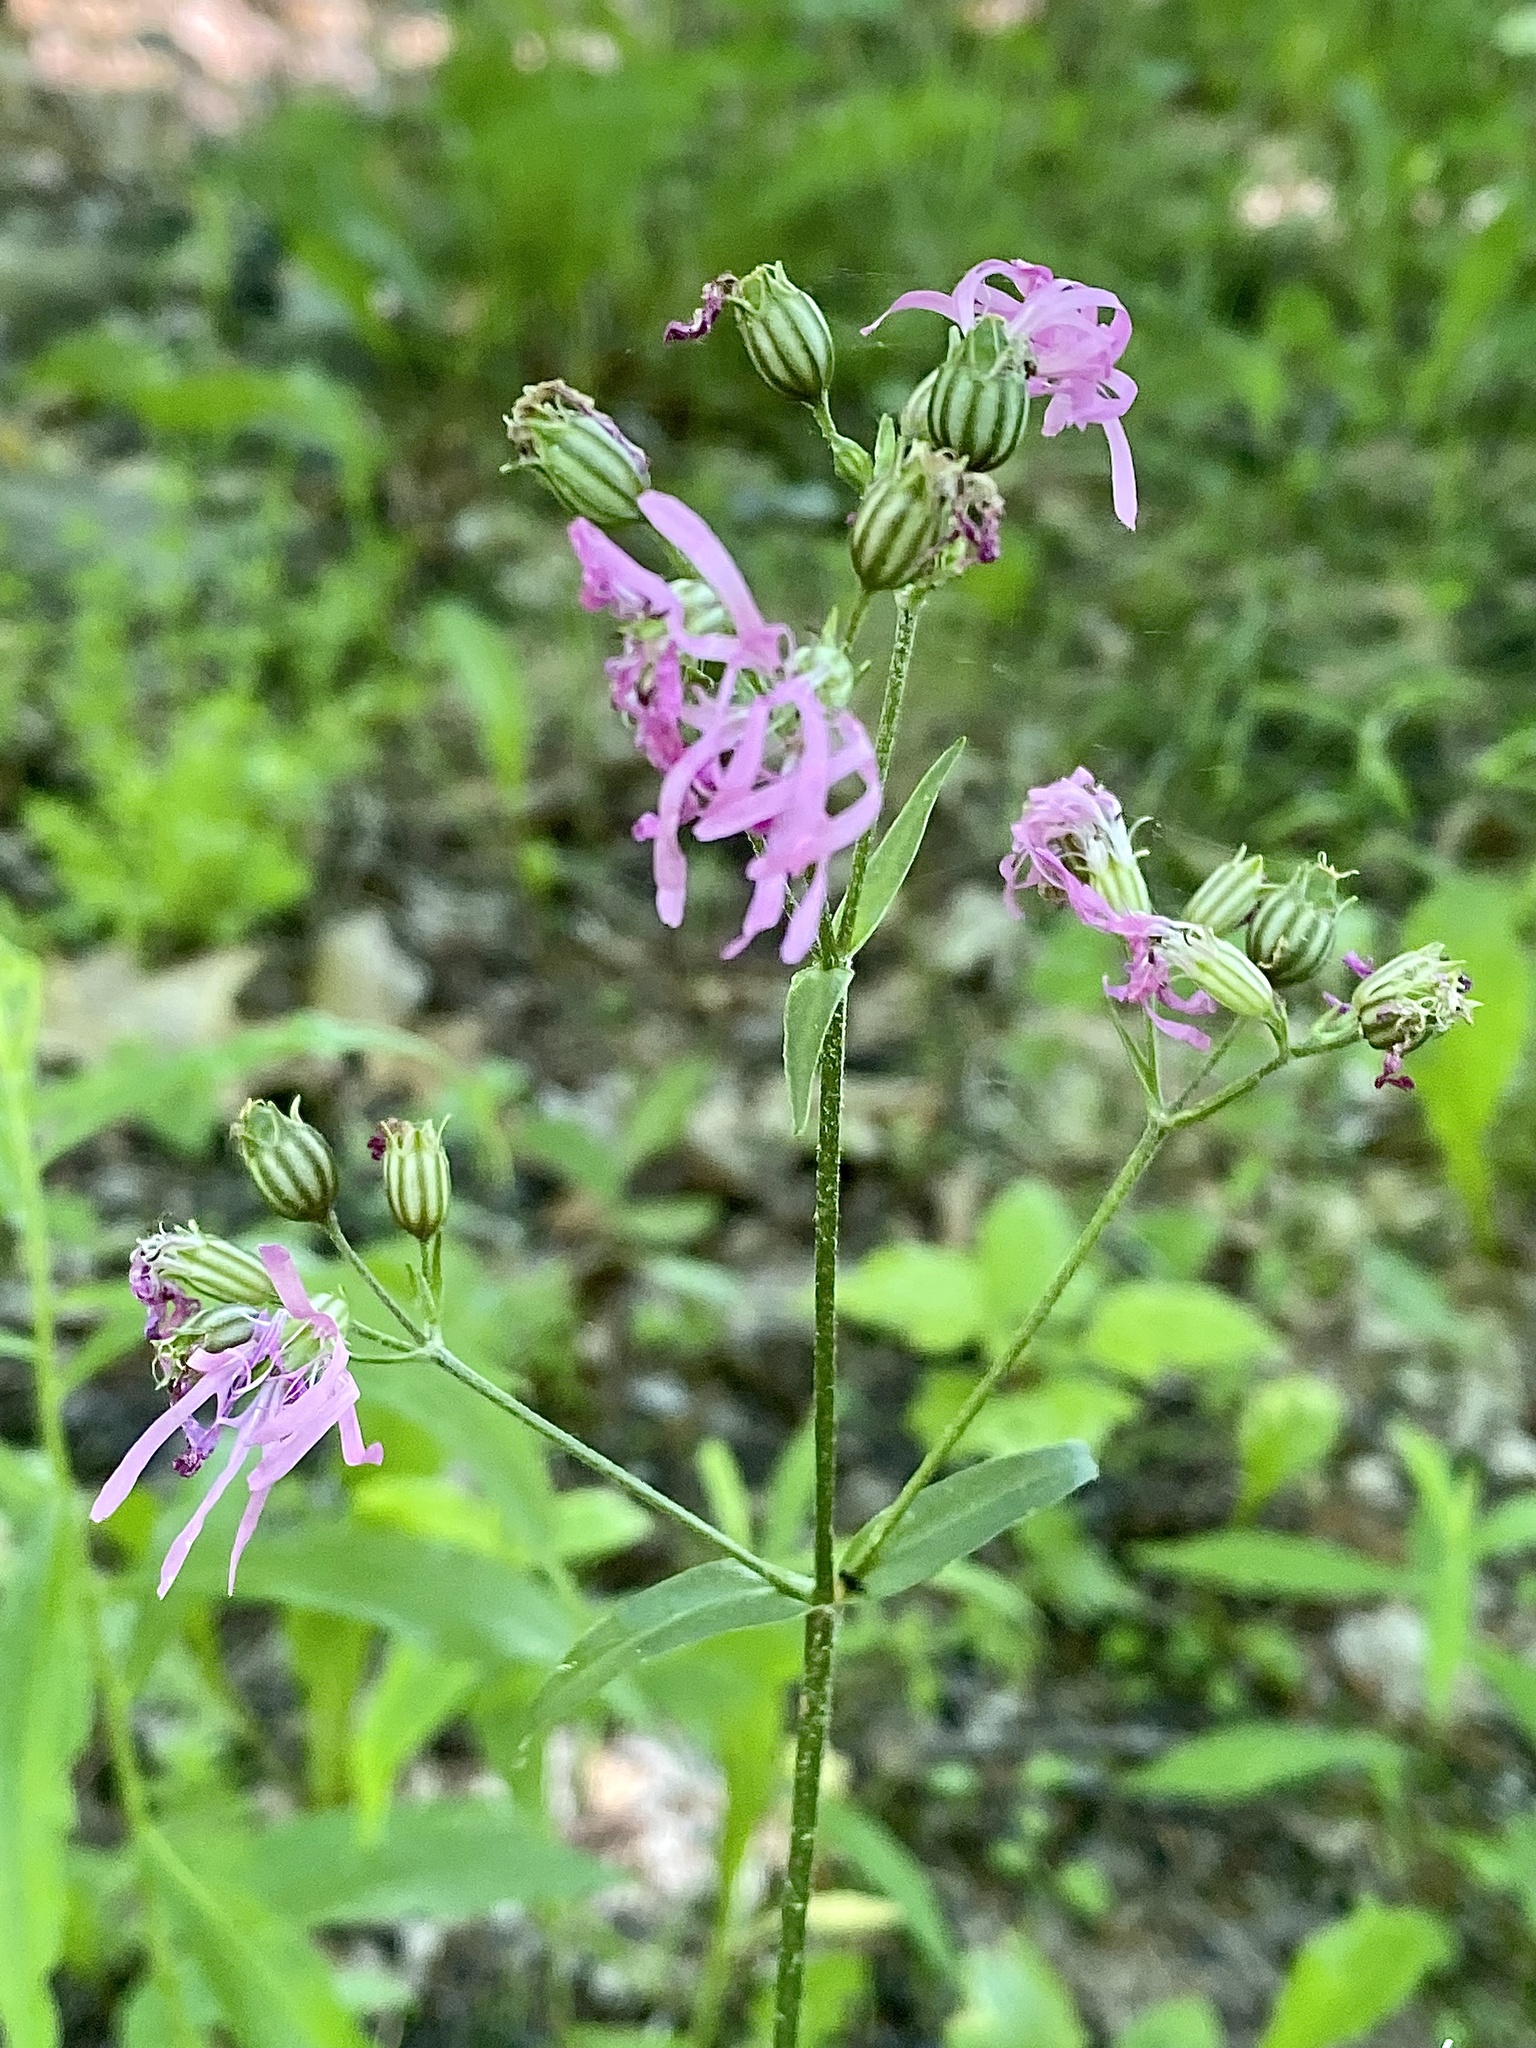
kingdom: Plantae
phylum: Tracheophyta
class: Magnoliopsida
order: Caryophyllales
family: Caryophyllaceae
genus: Silene
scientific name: Silene flos-cuculi
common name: Ragged-robin
